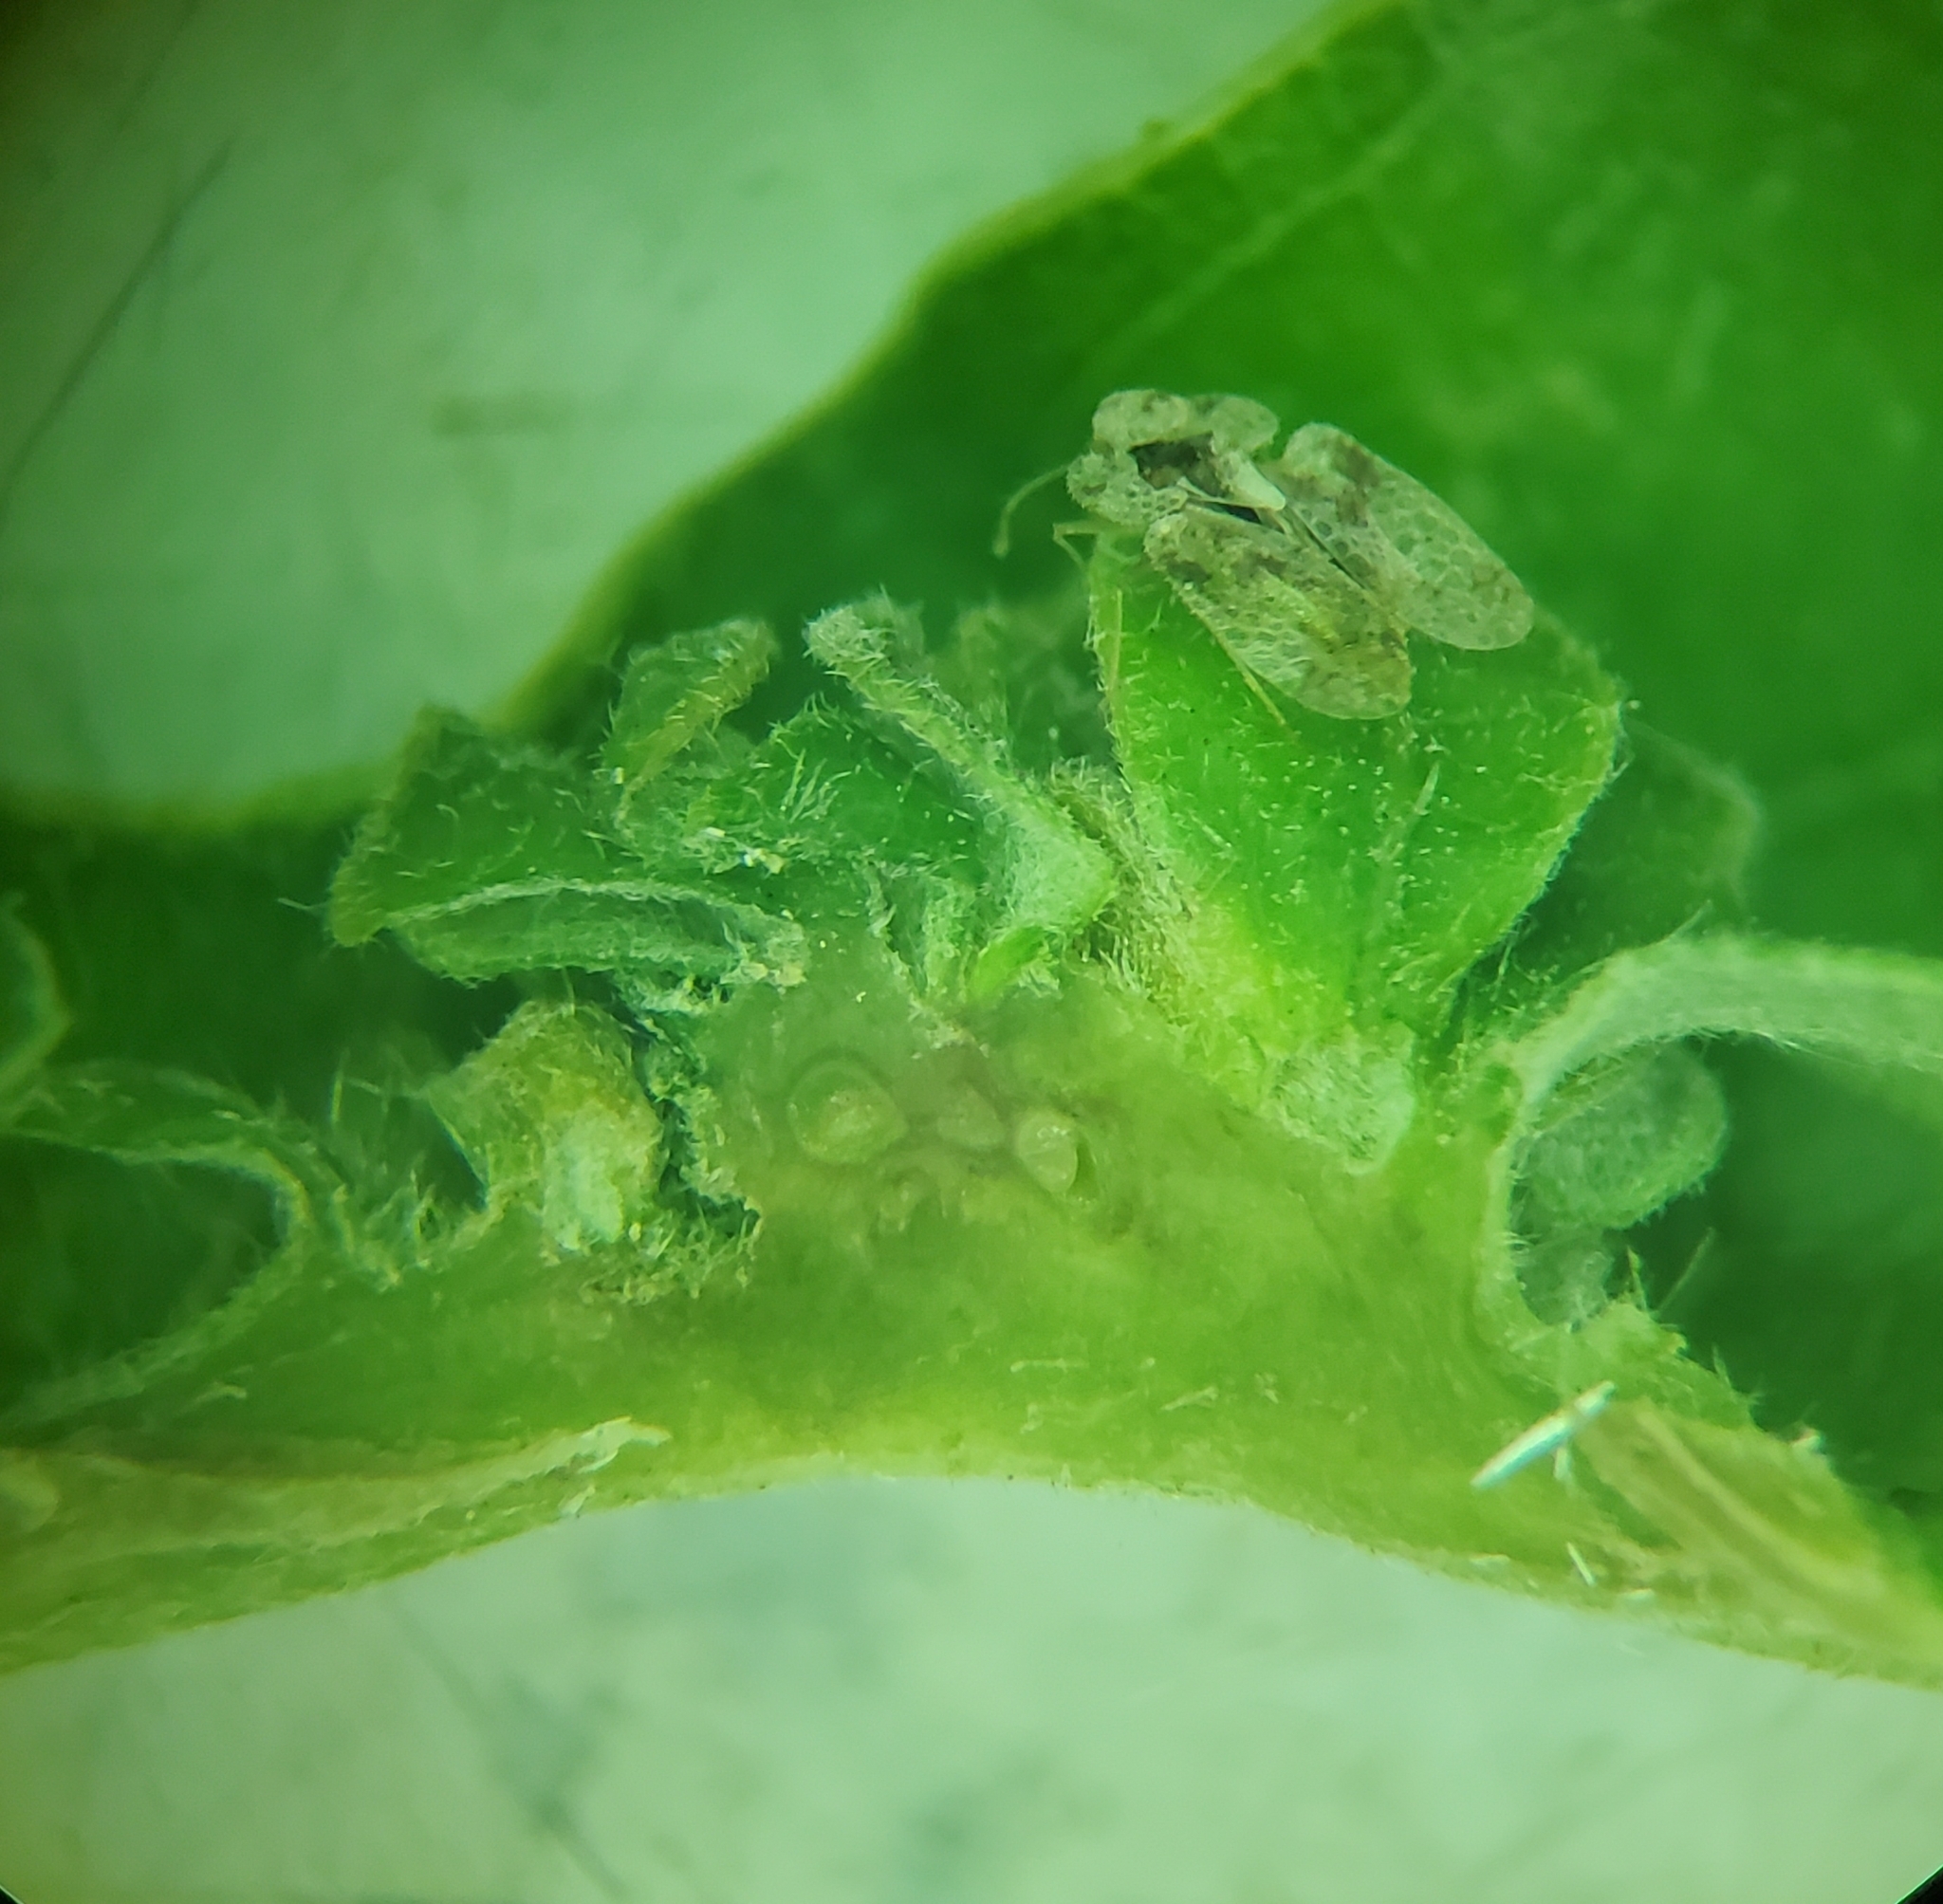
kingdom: Animalia
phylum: Arthropoda
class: Insecta
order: Hymenoptera
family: Cynipidae
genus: Andricus
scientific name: Andricus
